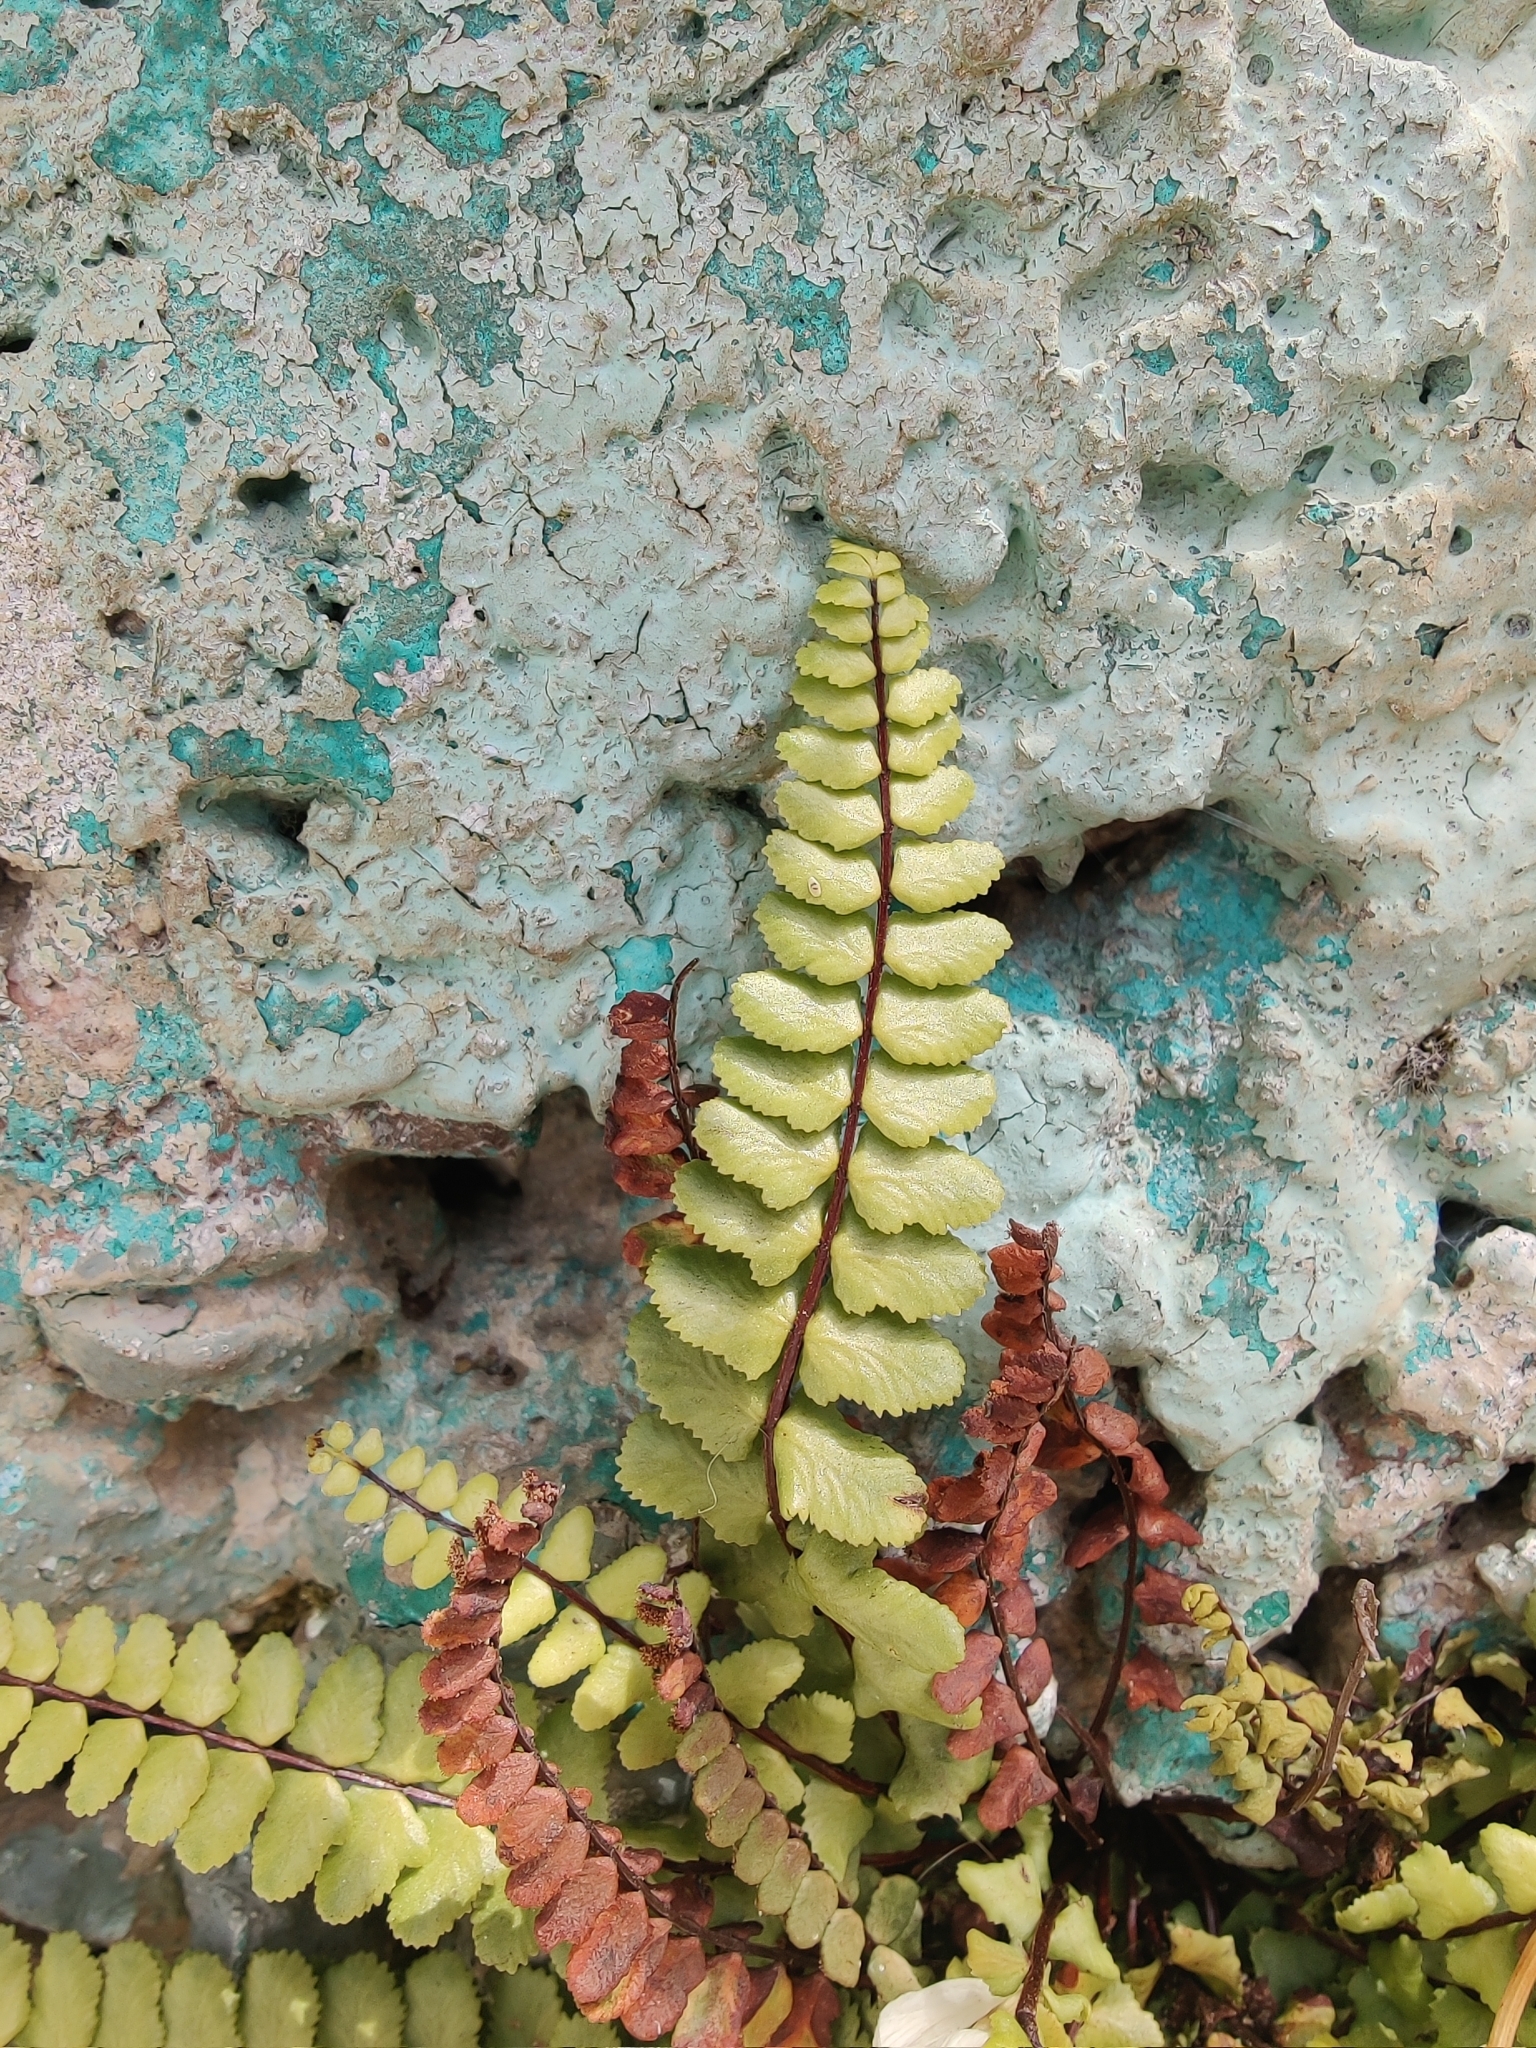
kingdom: Plantae
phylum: Tracheophyta
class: Polypodiopsida
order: Polypodiales
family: Aspleniaceae
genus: Asplenium
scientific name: Asplenium trichomanes
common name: Maidenhair spleenwort
